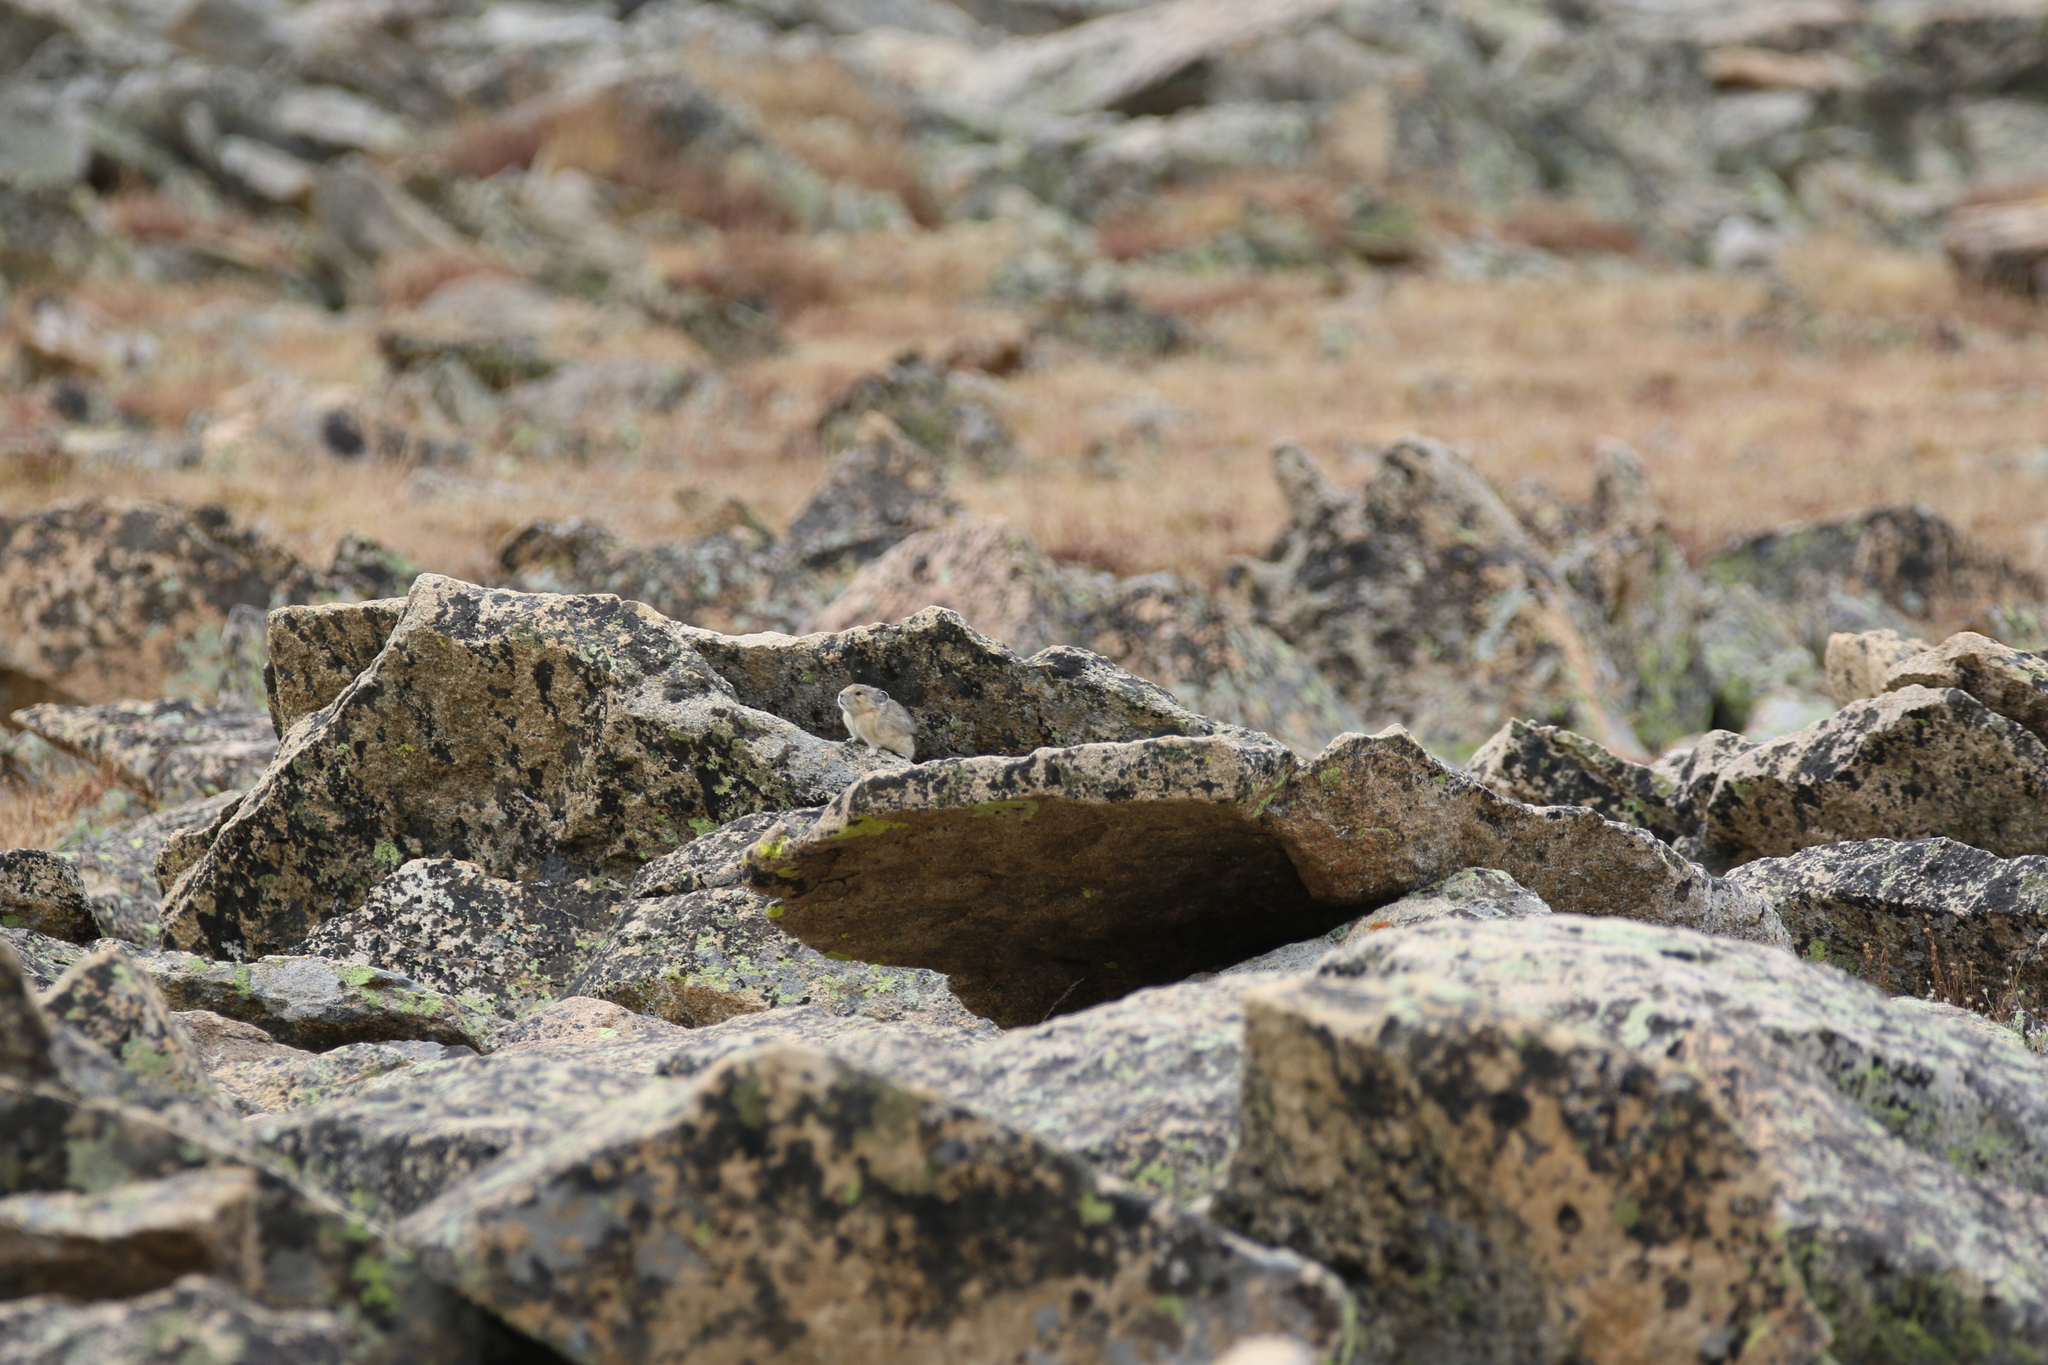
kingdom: Animalia
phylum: Chordata
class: Mammalia
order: Lagomorpha
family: Ochotonidae
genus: Ochotona
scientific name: Ochotona princeps
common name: American pika
